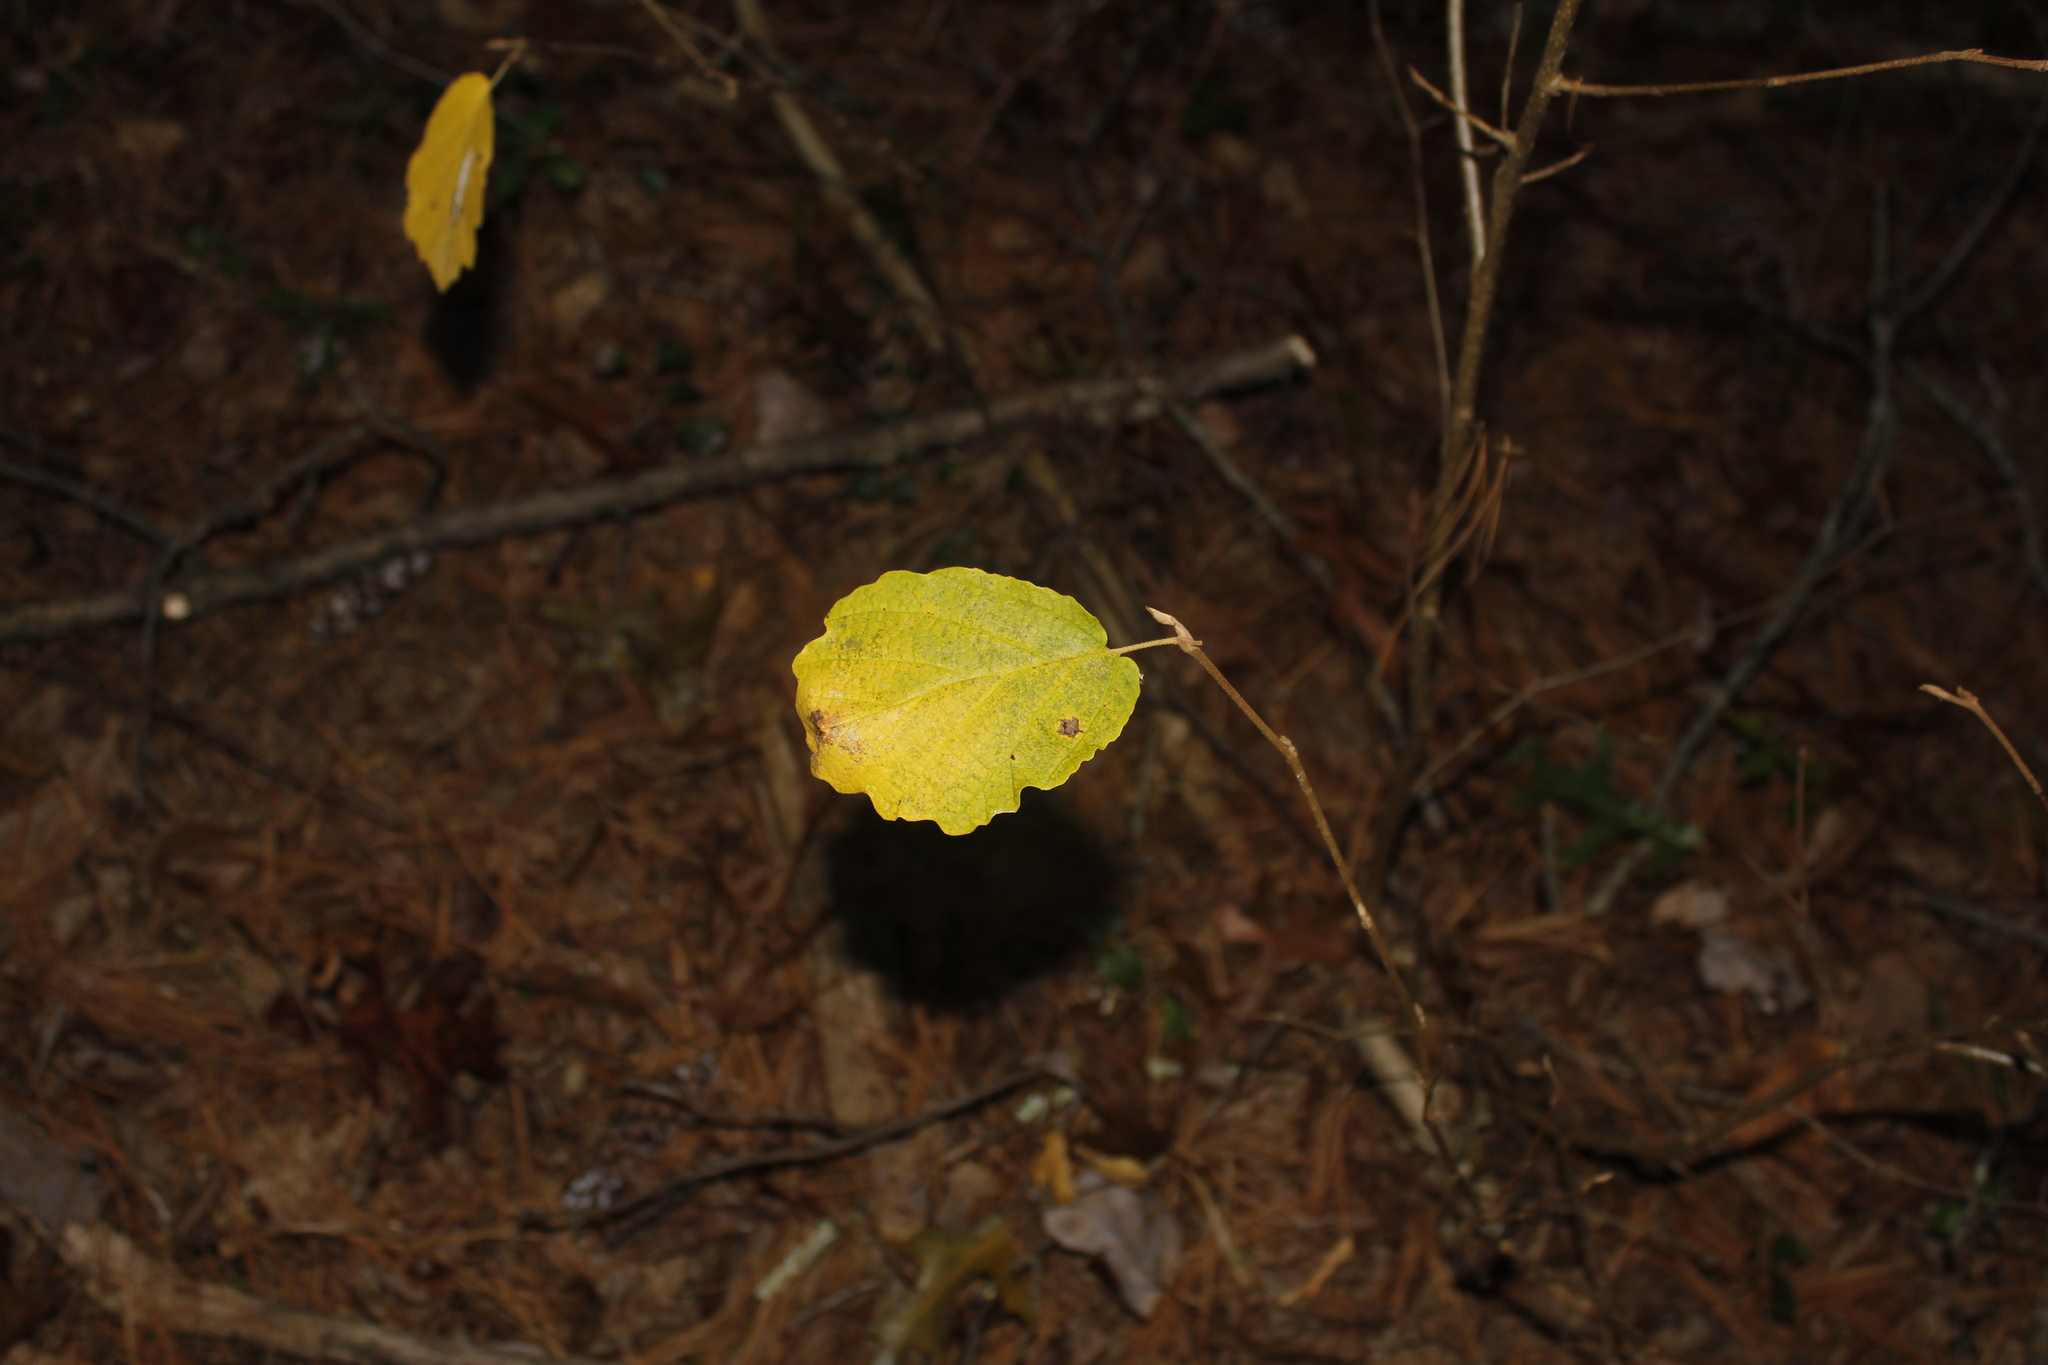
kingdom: Plantae
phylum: Tracheophyta
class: Magnoliopsida
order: Saxifragales
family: Hamamelidaceae
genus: Hamamelis
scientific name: Hamamelis virginiana
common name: Witch-hazel
